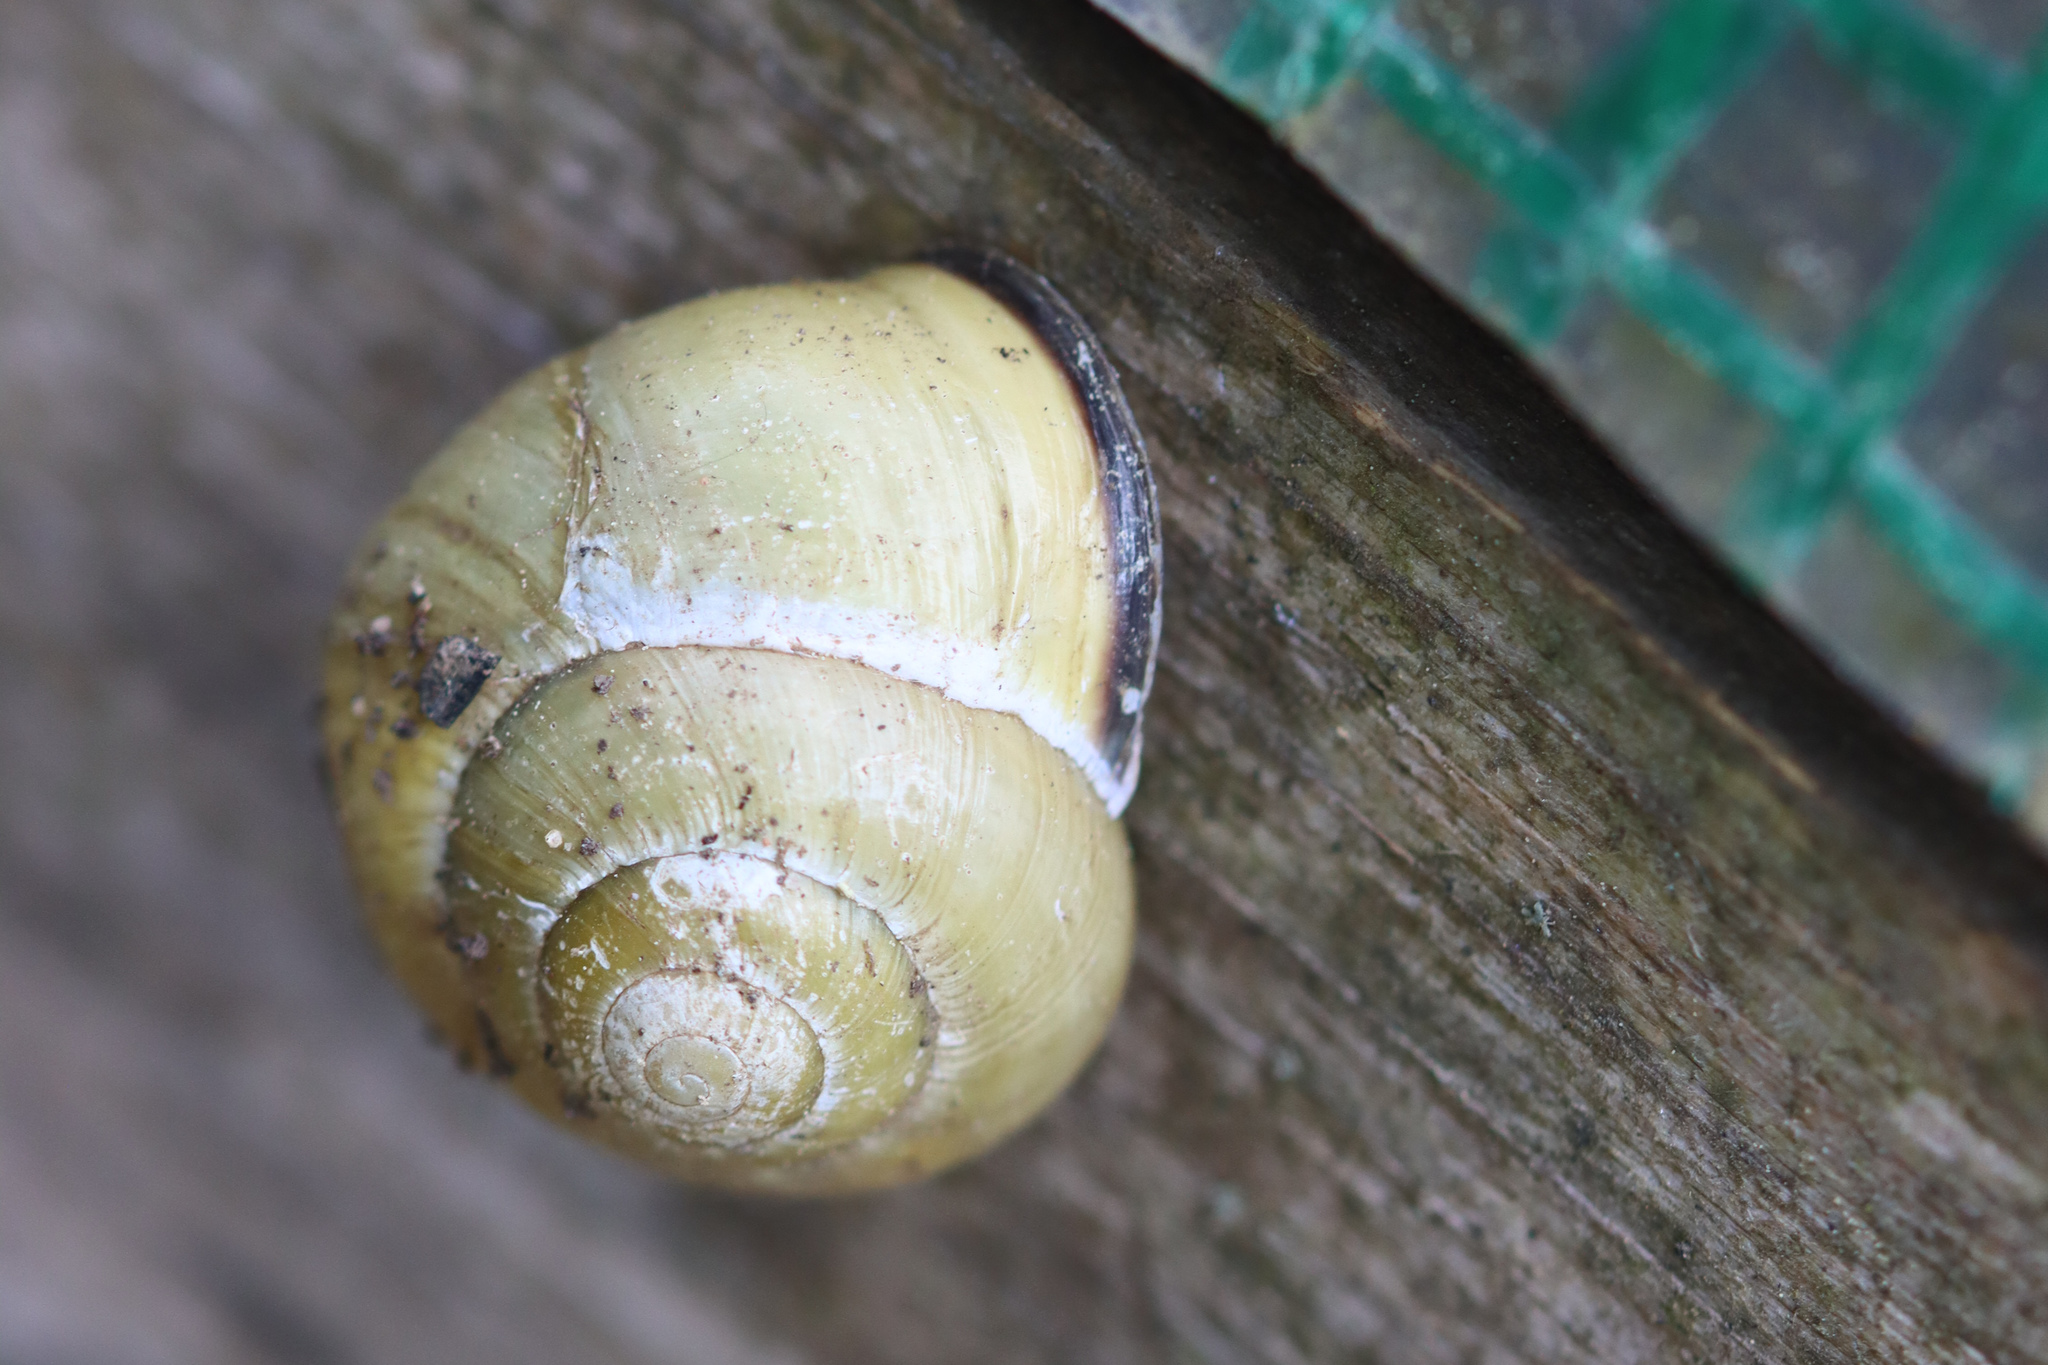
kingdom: Animalia
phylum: Mollusca
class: Gastropoda
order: Stylommatophora
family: Helicidae
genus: Cepaea
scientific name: Cepaea nemoralis
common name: Grovesnail
